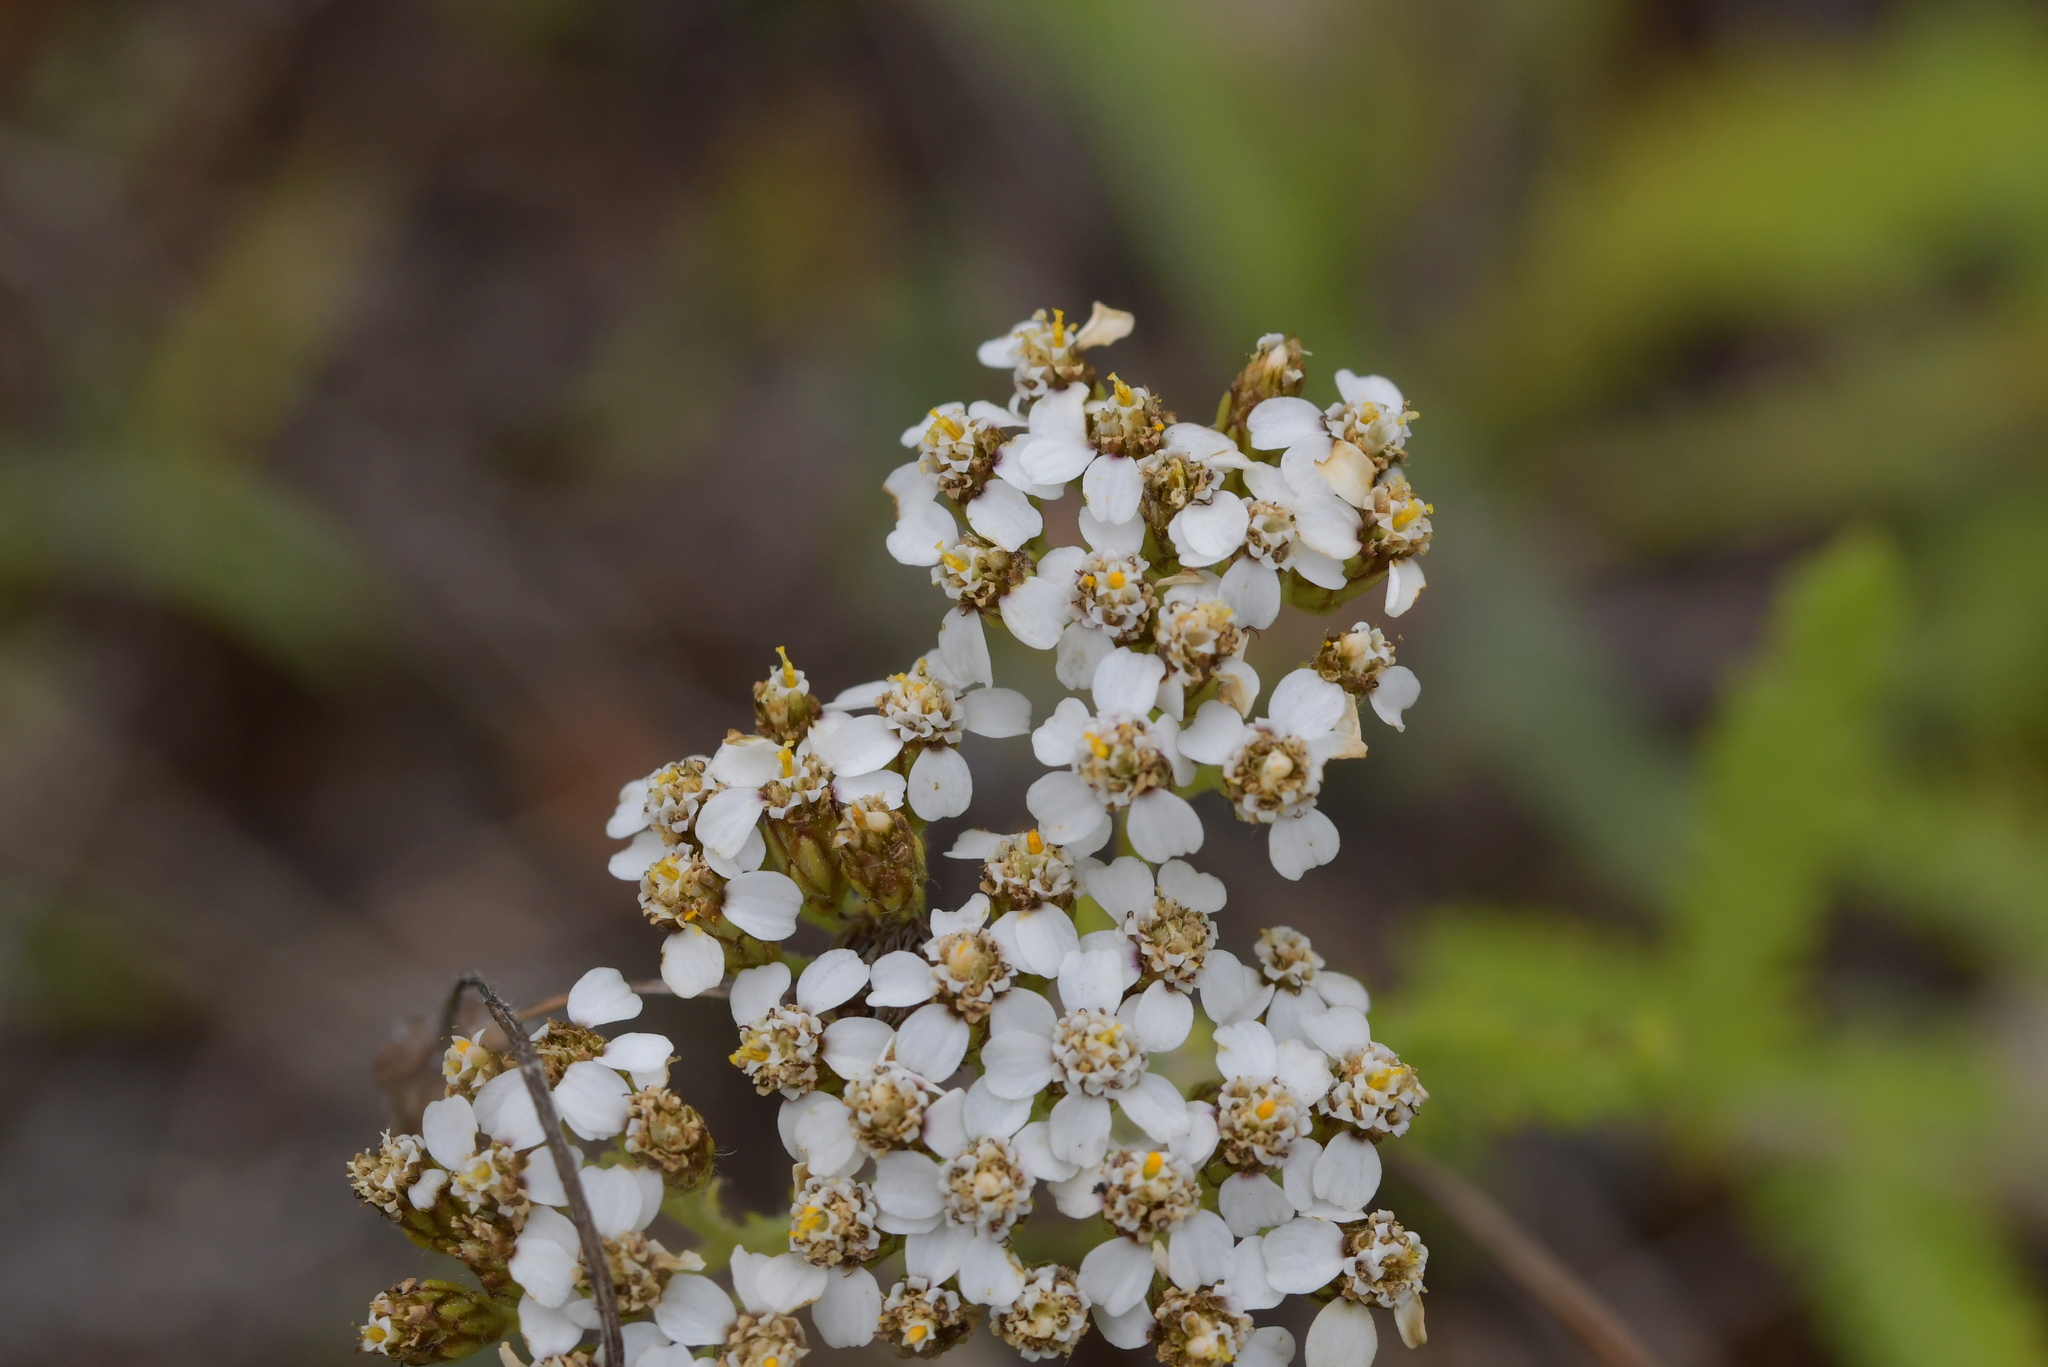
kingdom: Plantae
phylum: Tracheophyta
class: Magnoliopsida
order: Asterales
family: Asteraceae
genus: Achillea
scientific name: Achillea millefolium
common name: Yarrow
